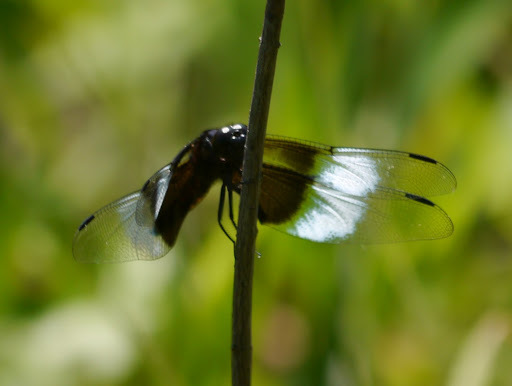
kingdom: Animalia
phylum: Arthropoda
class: Insecta
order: Odonata
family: Libellulidae
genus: Libellula
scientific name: Libellula luctuosa
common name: Widow skimmer
